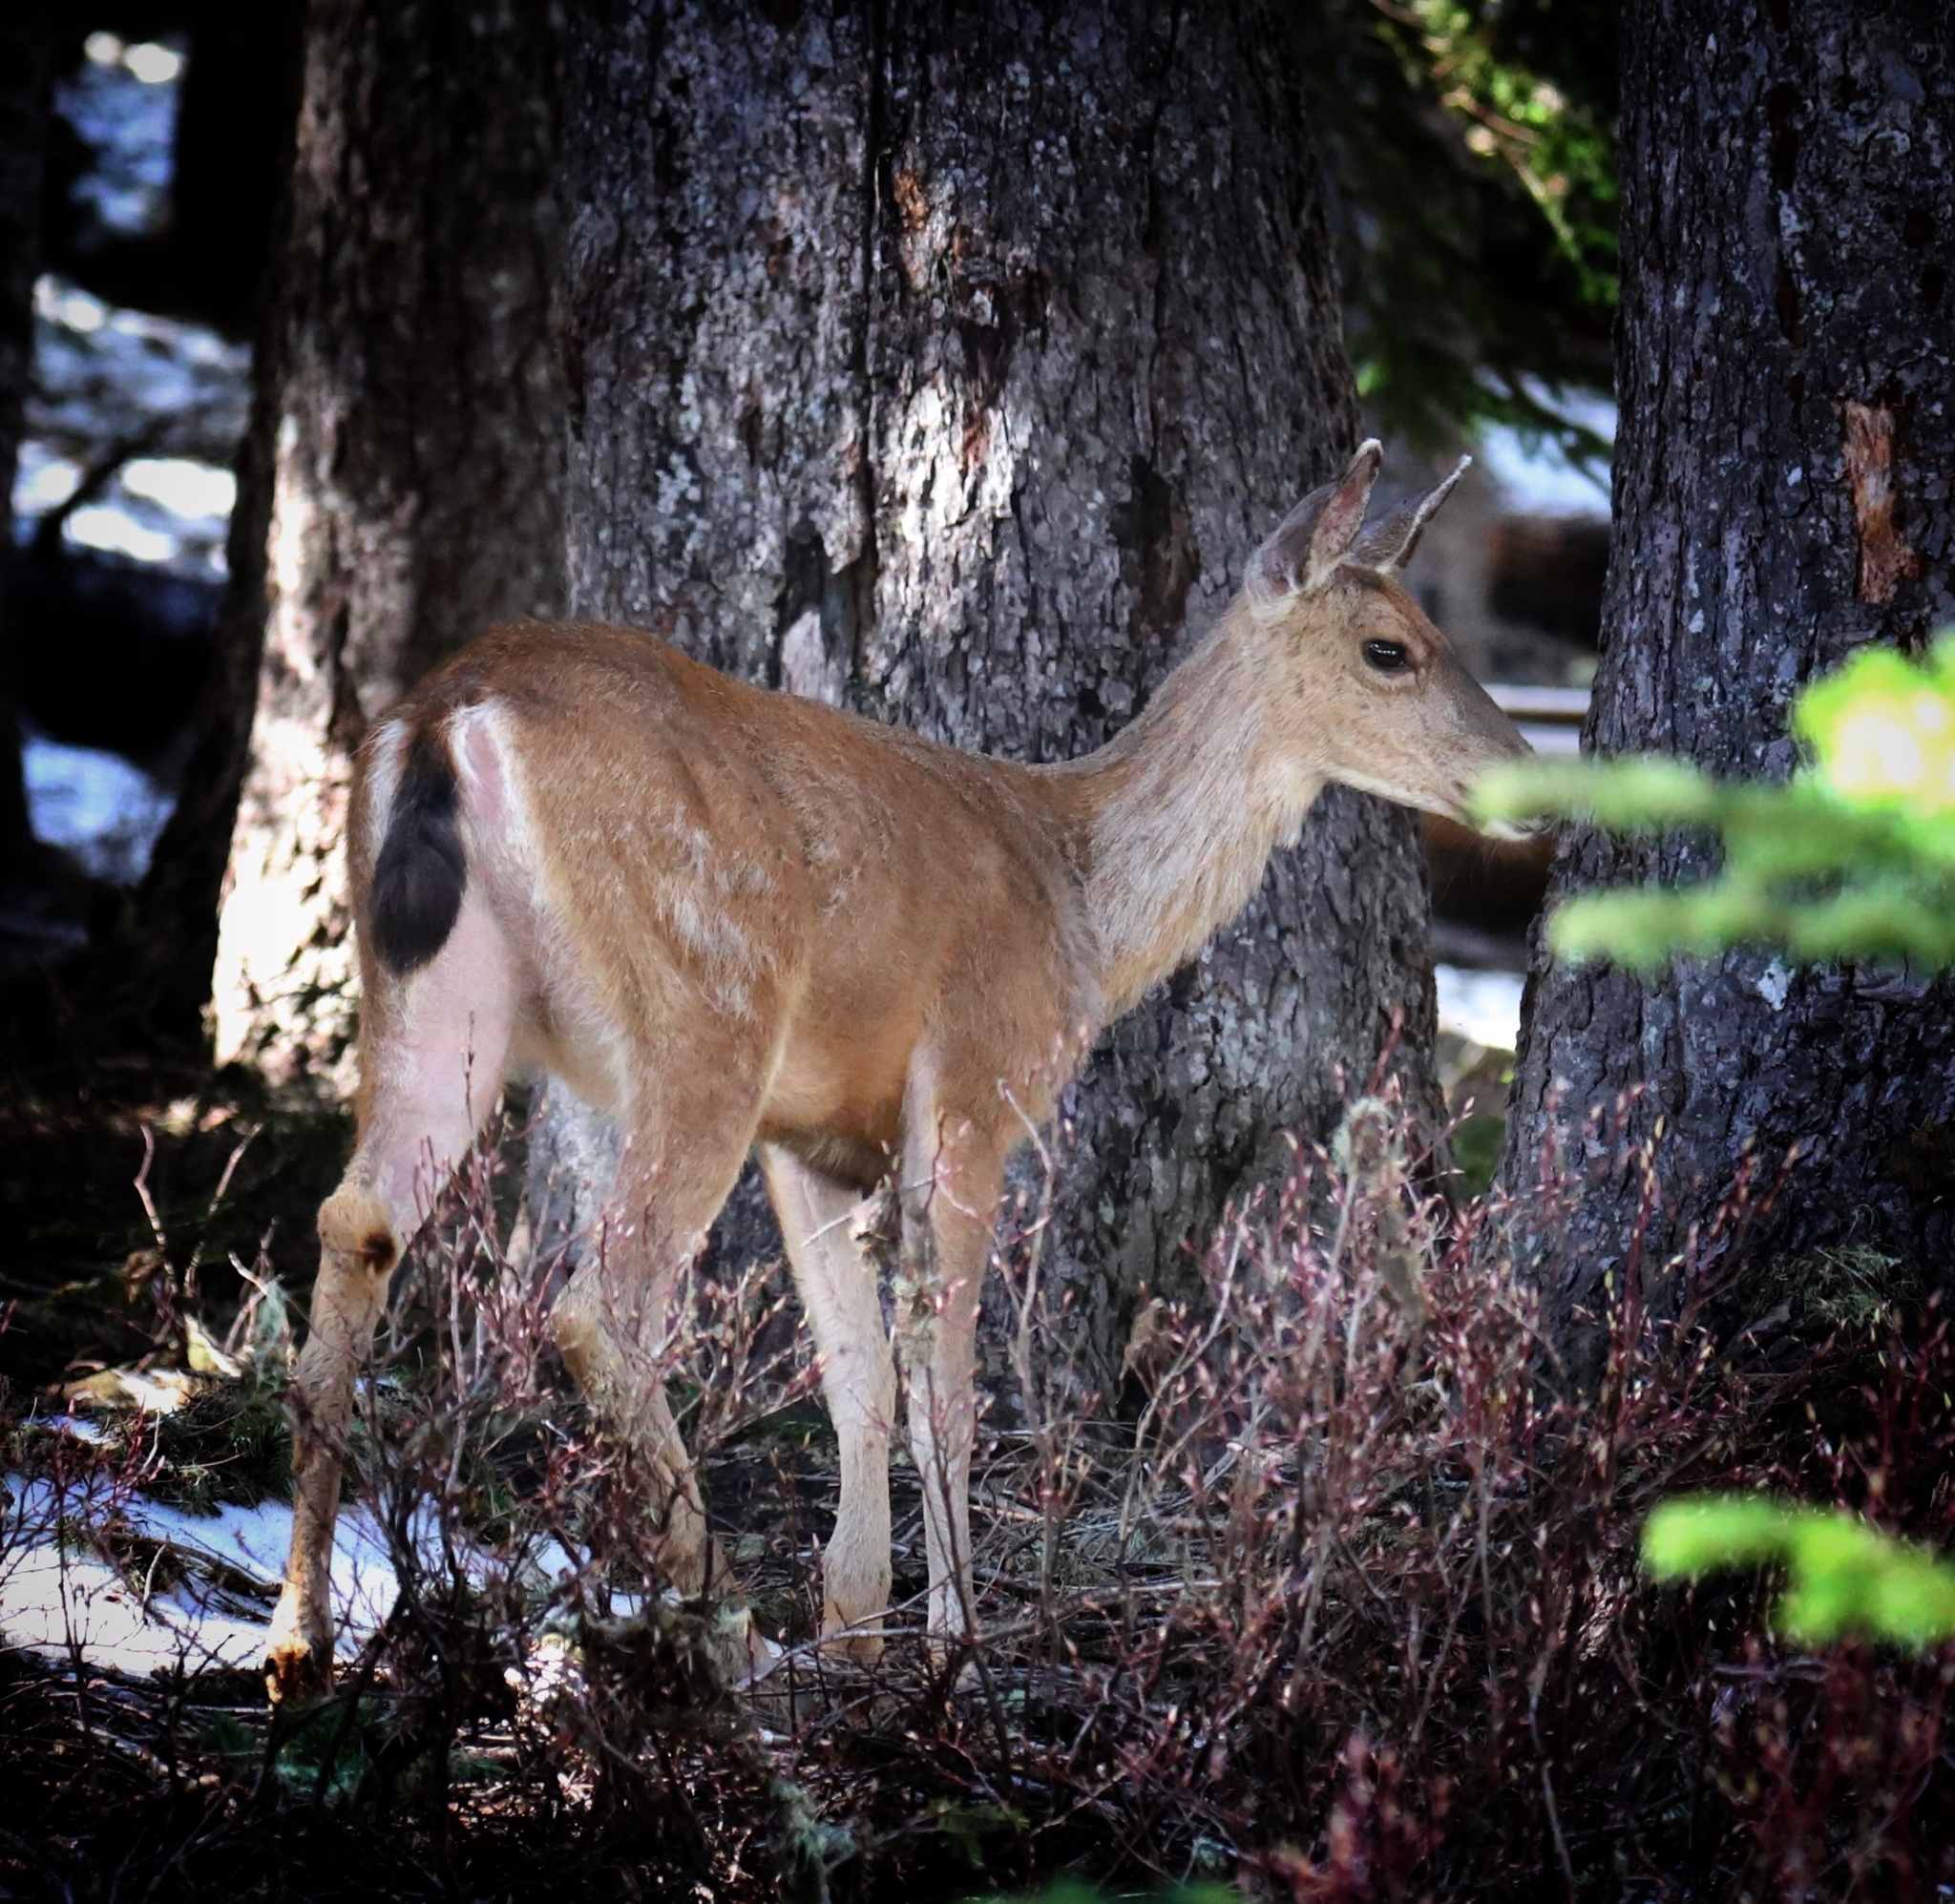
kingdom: Animalia
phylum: Chordata
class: Mammalia
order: Artiodactyla
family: Cervidae
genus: Odocoileus
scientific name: Odocoileus hemionus
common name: Mule deer
